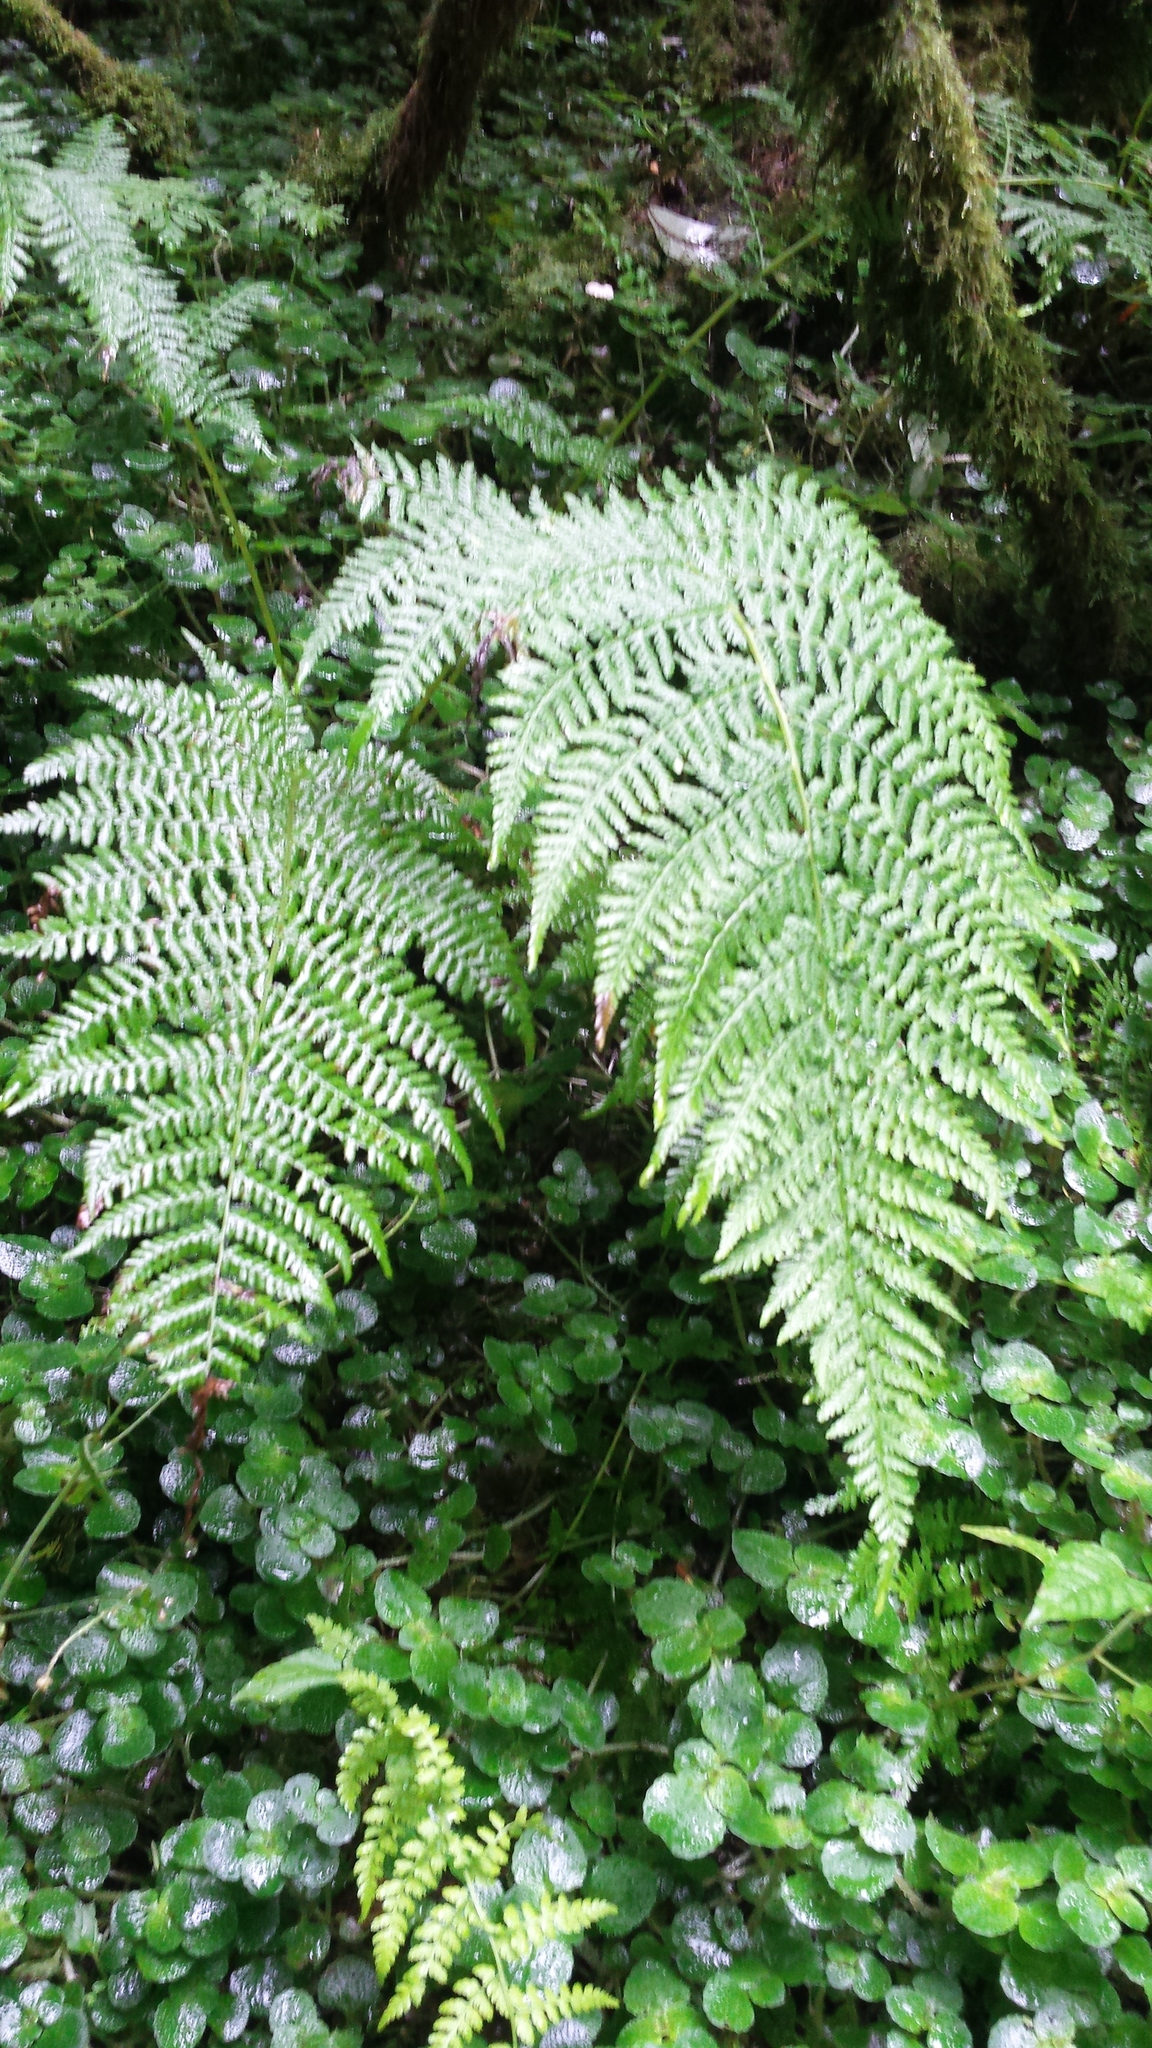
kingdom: Plantae
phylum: Tracheophyta
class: Polypodiopsida
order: Polypodiales
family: Athyriaceae
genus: Athyrium
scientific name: Athyrium filix-femina
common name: Lady fern
